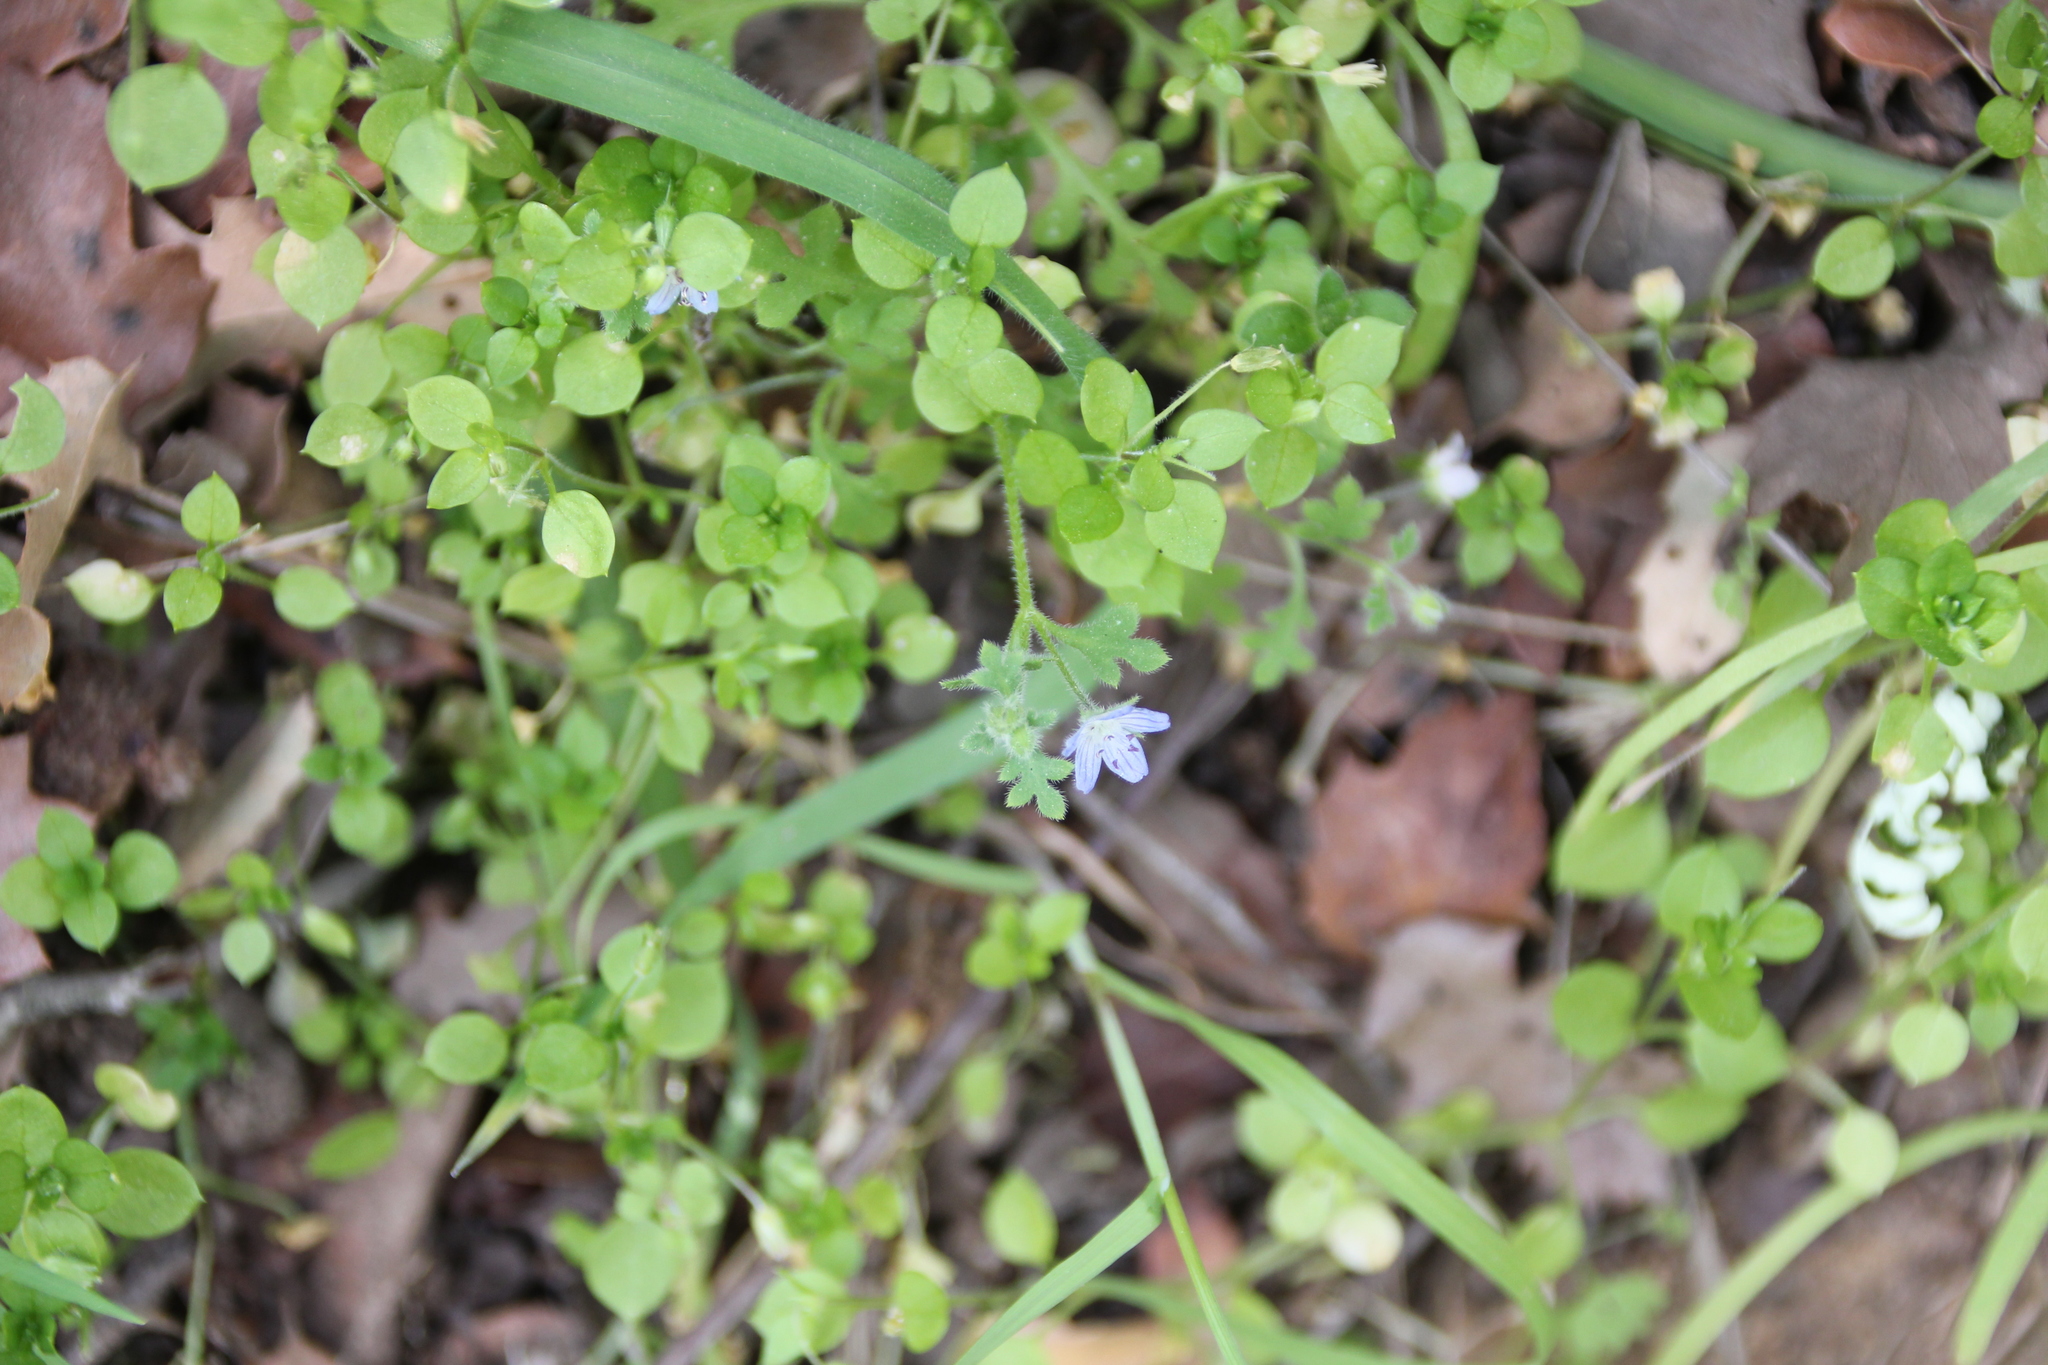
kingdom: Plantae
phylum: Tracheophyta
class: Magnoliopsida
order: Boraginales
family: Hydrophyllaceae
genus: Nemophila
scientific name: Nemophila menziesii
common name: Baby's-blue-eyes
